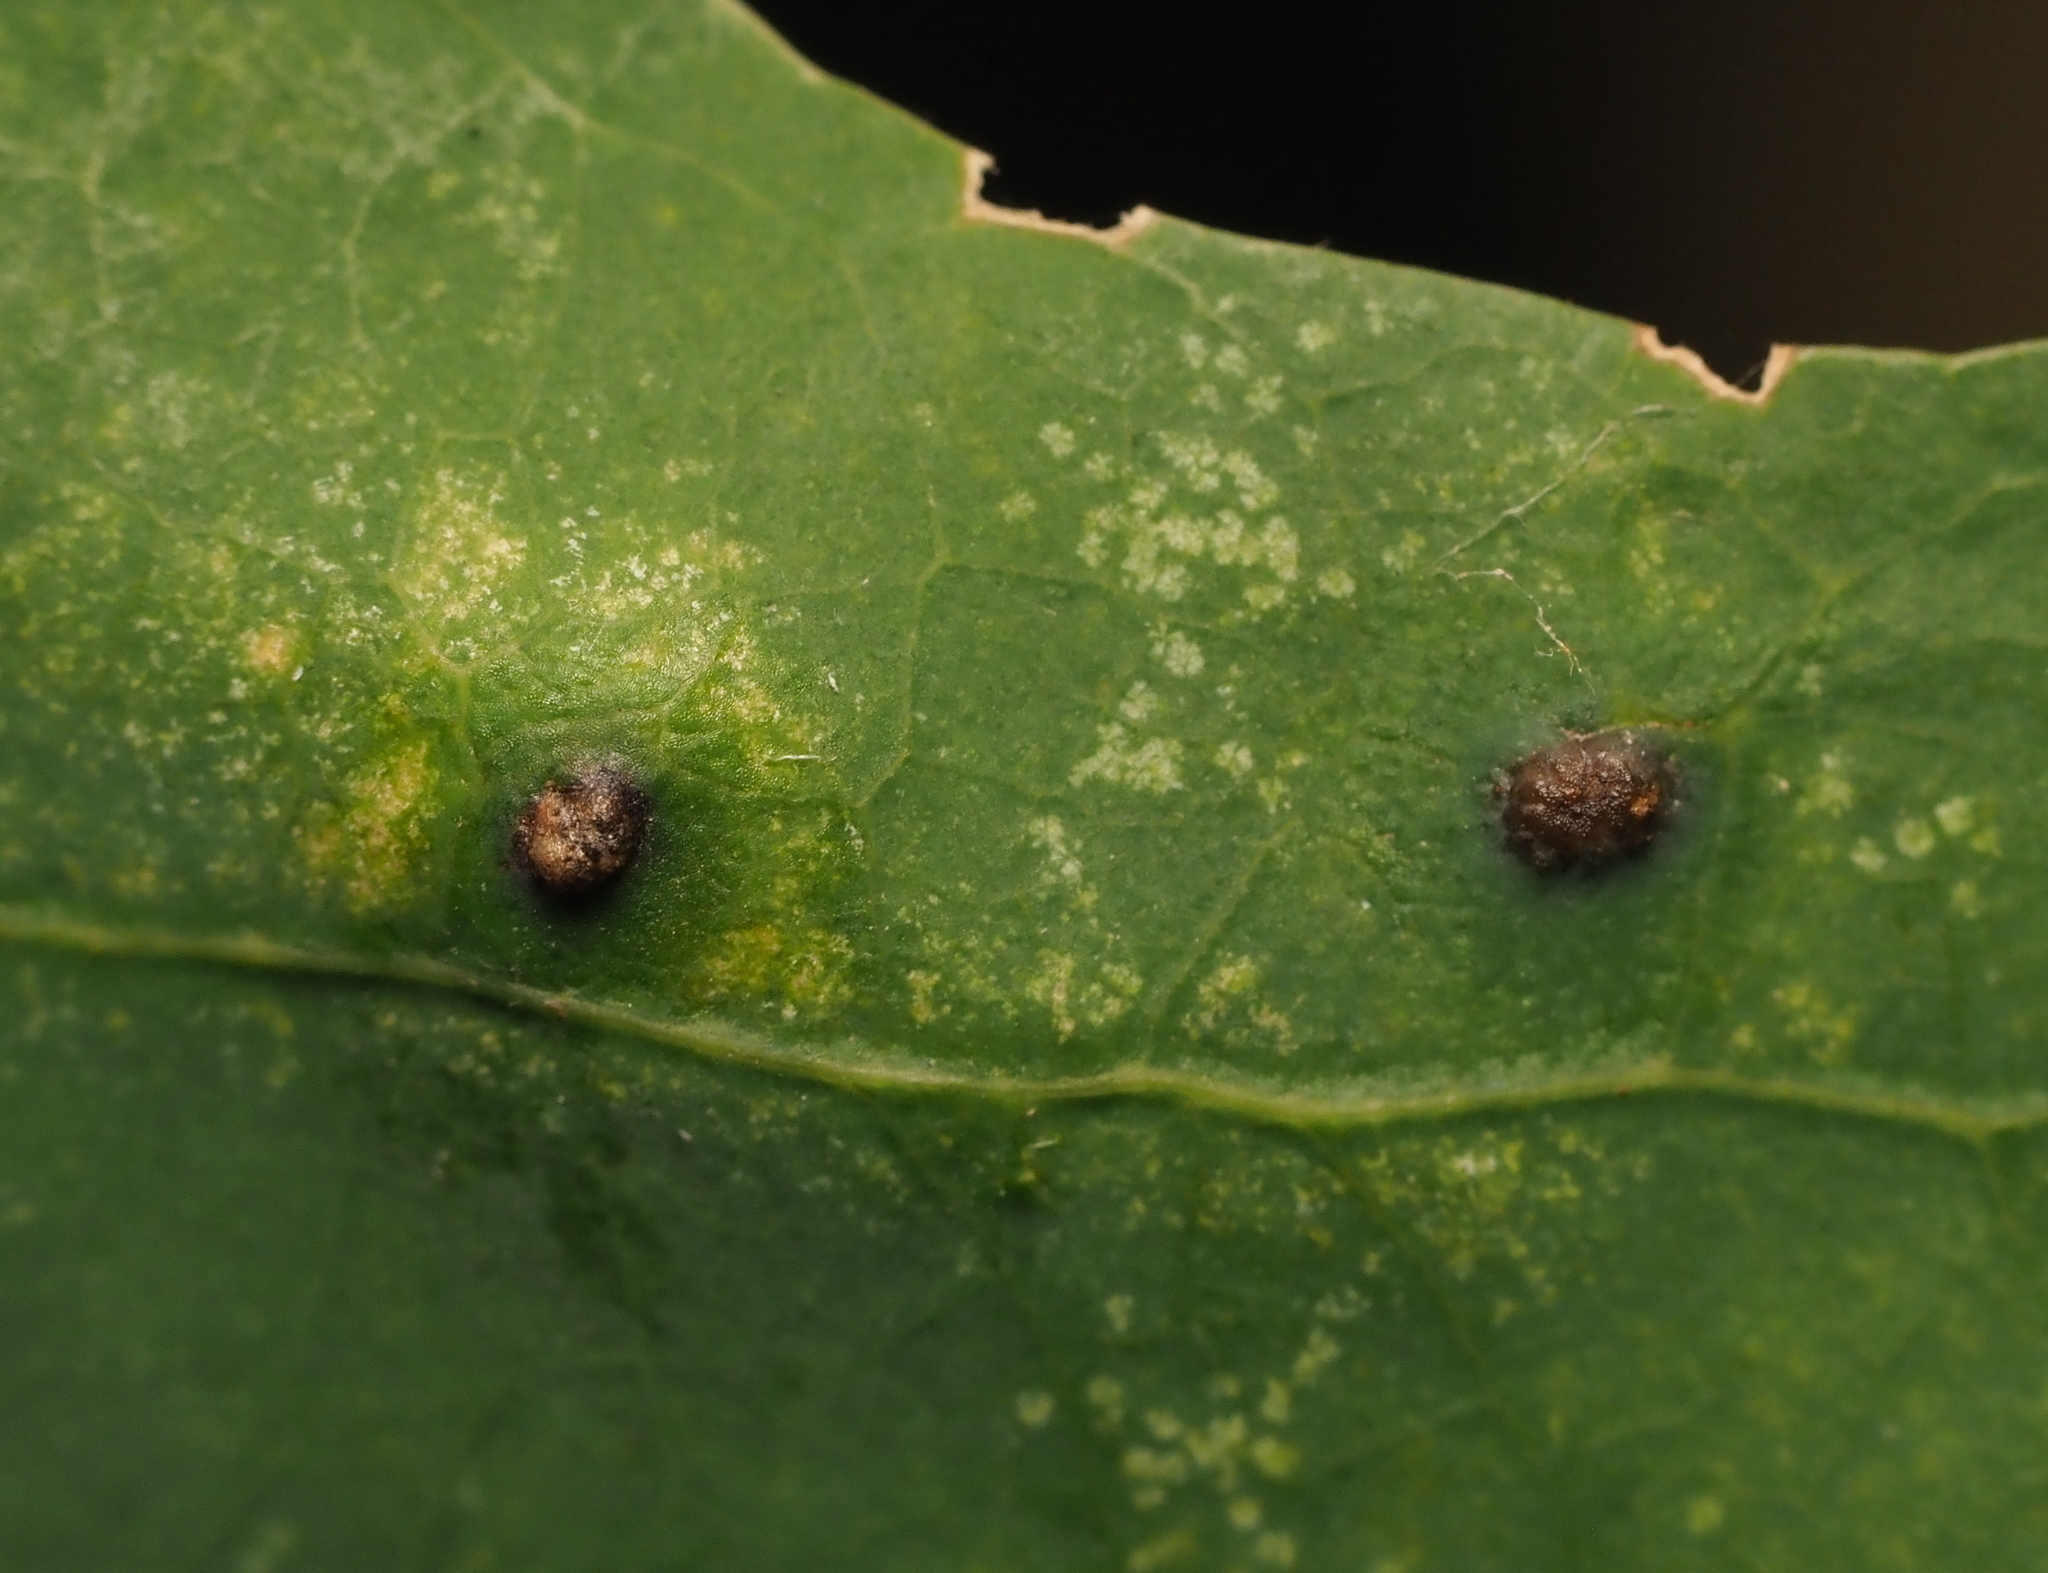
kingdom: Animalia
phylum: Arthropoda
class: Insecta
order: Hymenoptera
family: Cynipidae
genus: Neuroterus
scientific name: Neuroterus quercusverrucarum
